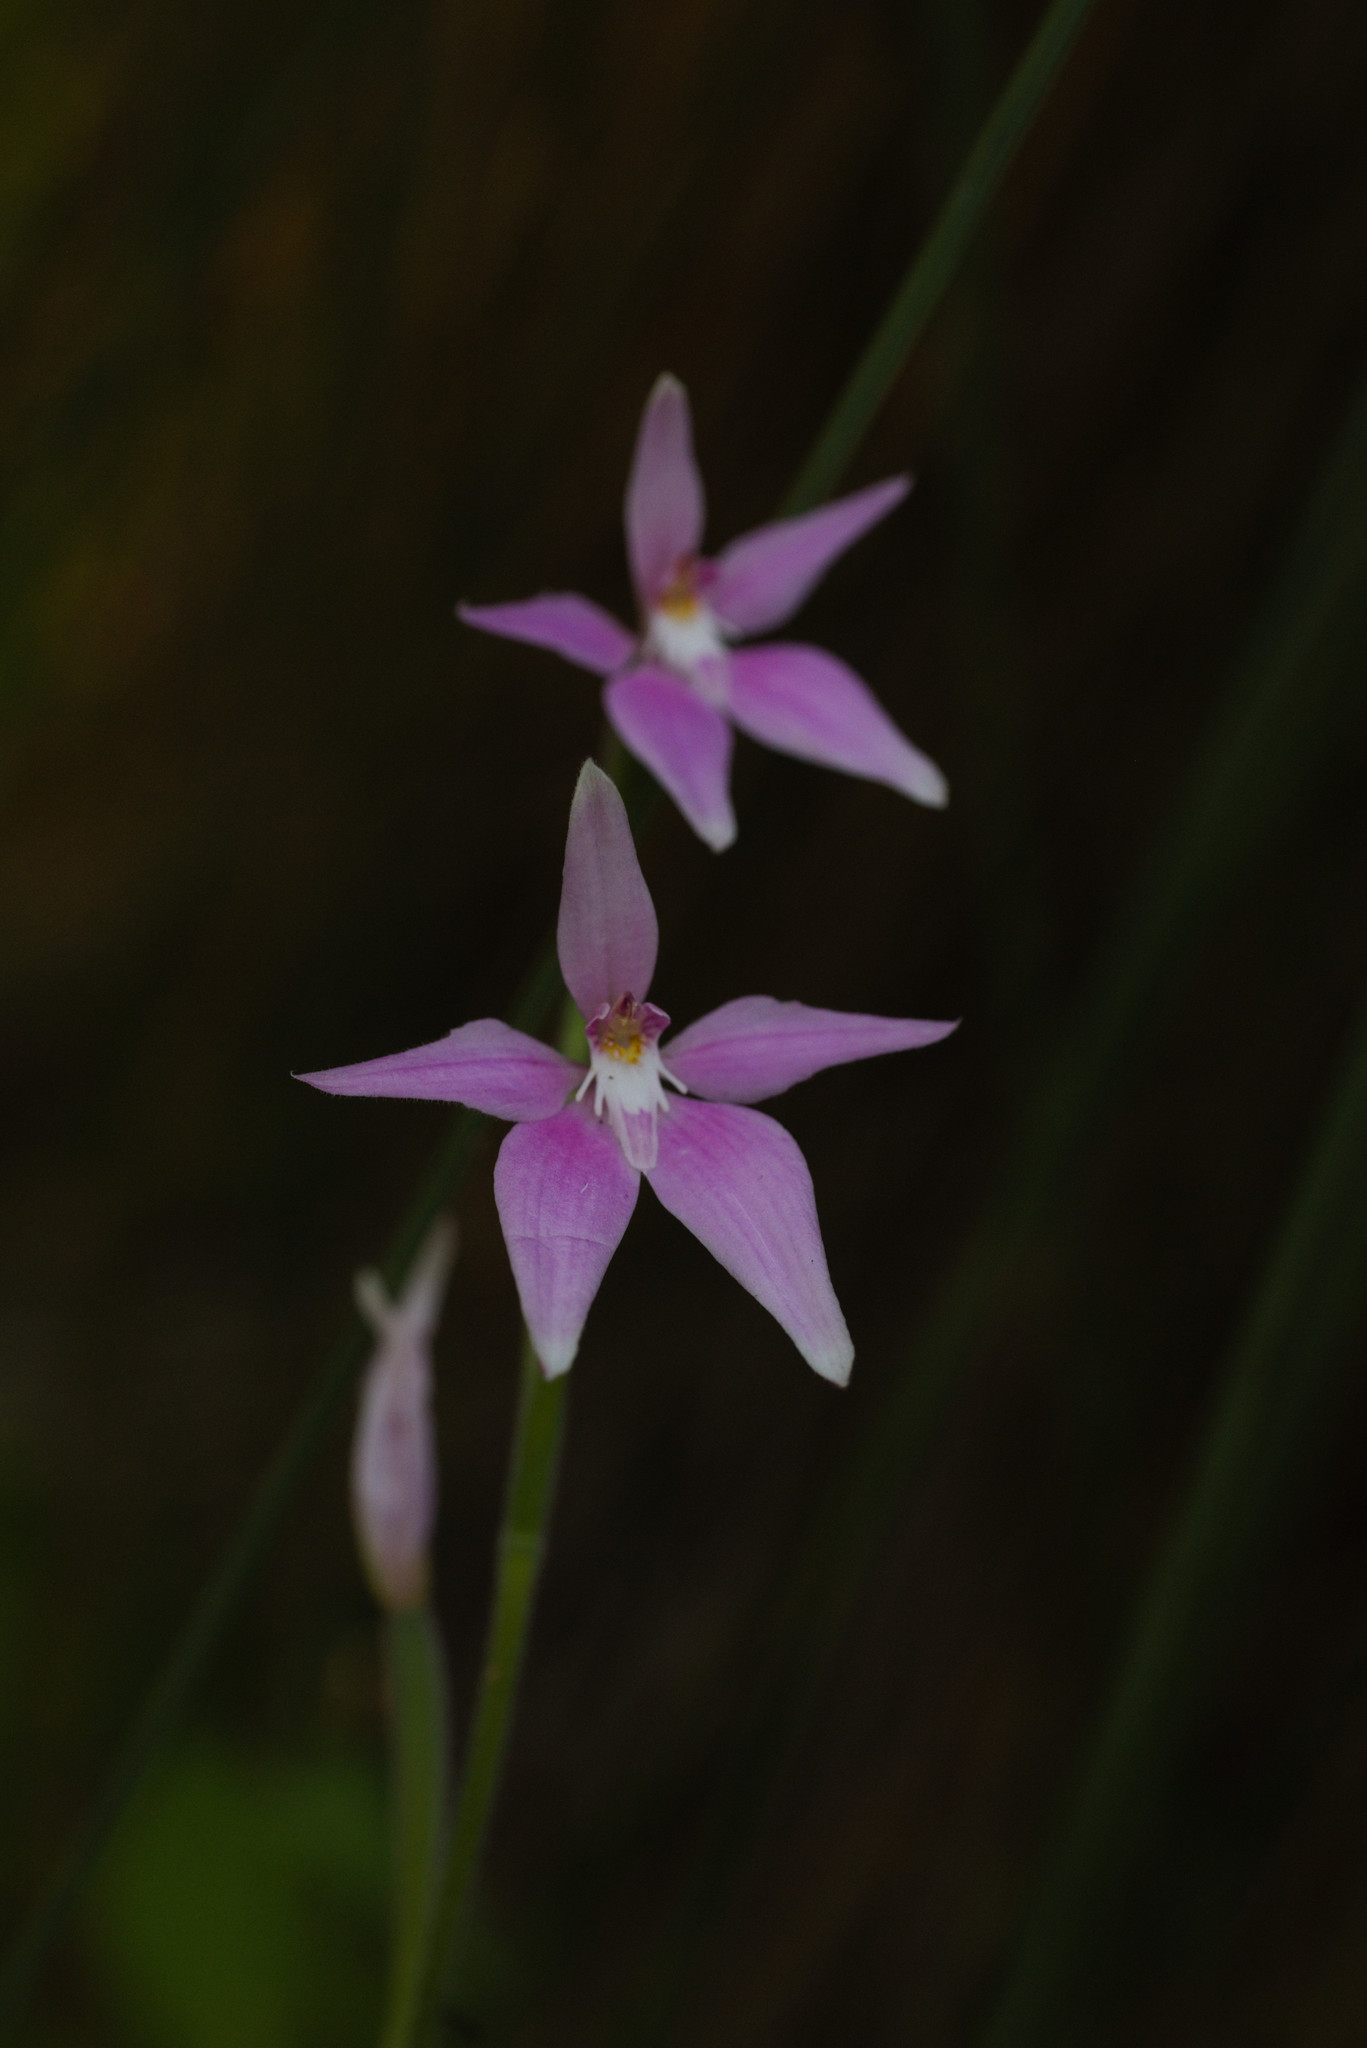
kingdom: Plantae
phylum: Tracheophyta
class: Liliopsida
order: Asparagales
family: Orchidaceae
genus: Caladenia
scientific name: Caladenia latifolia
